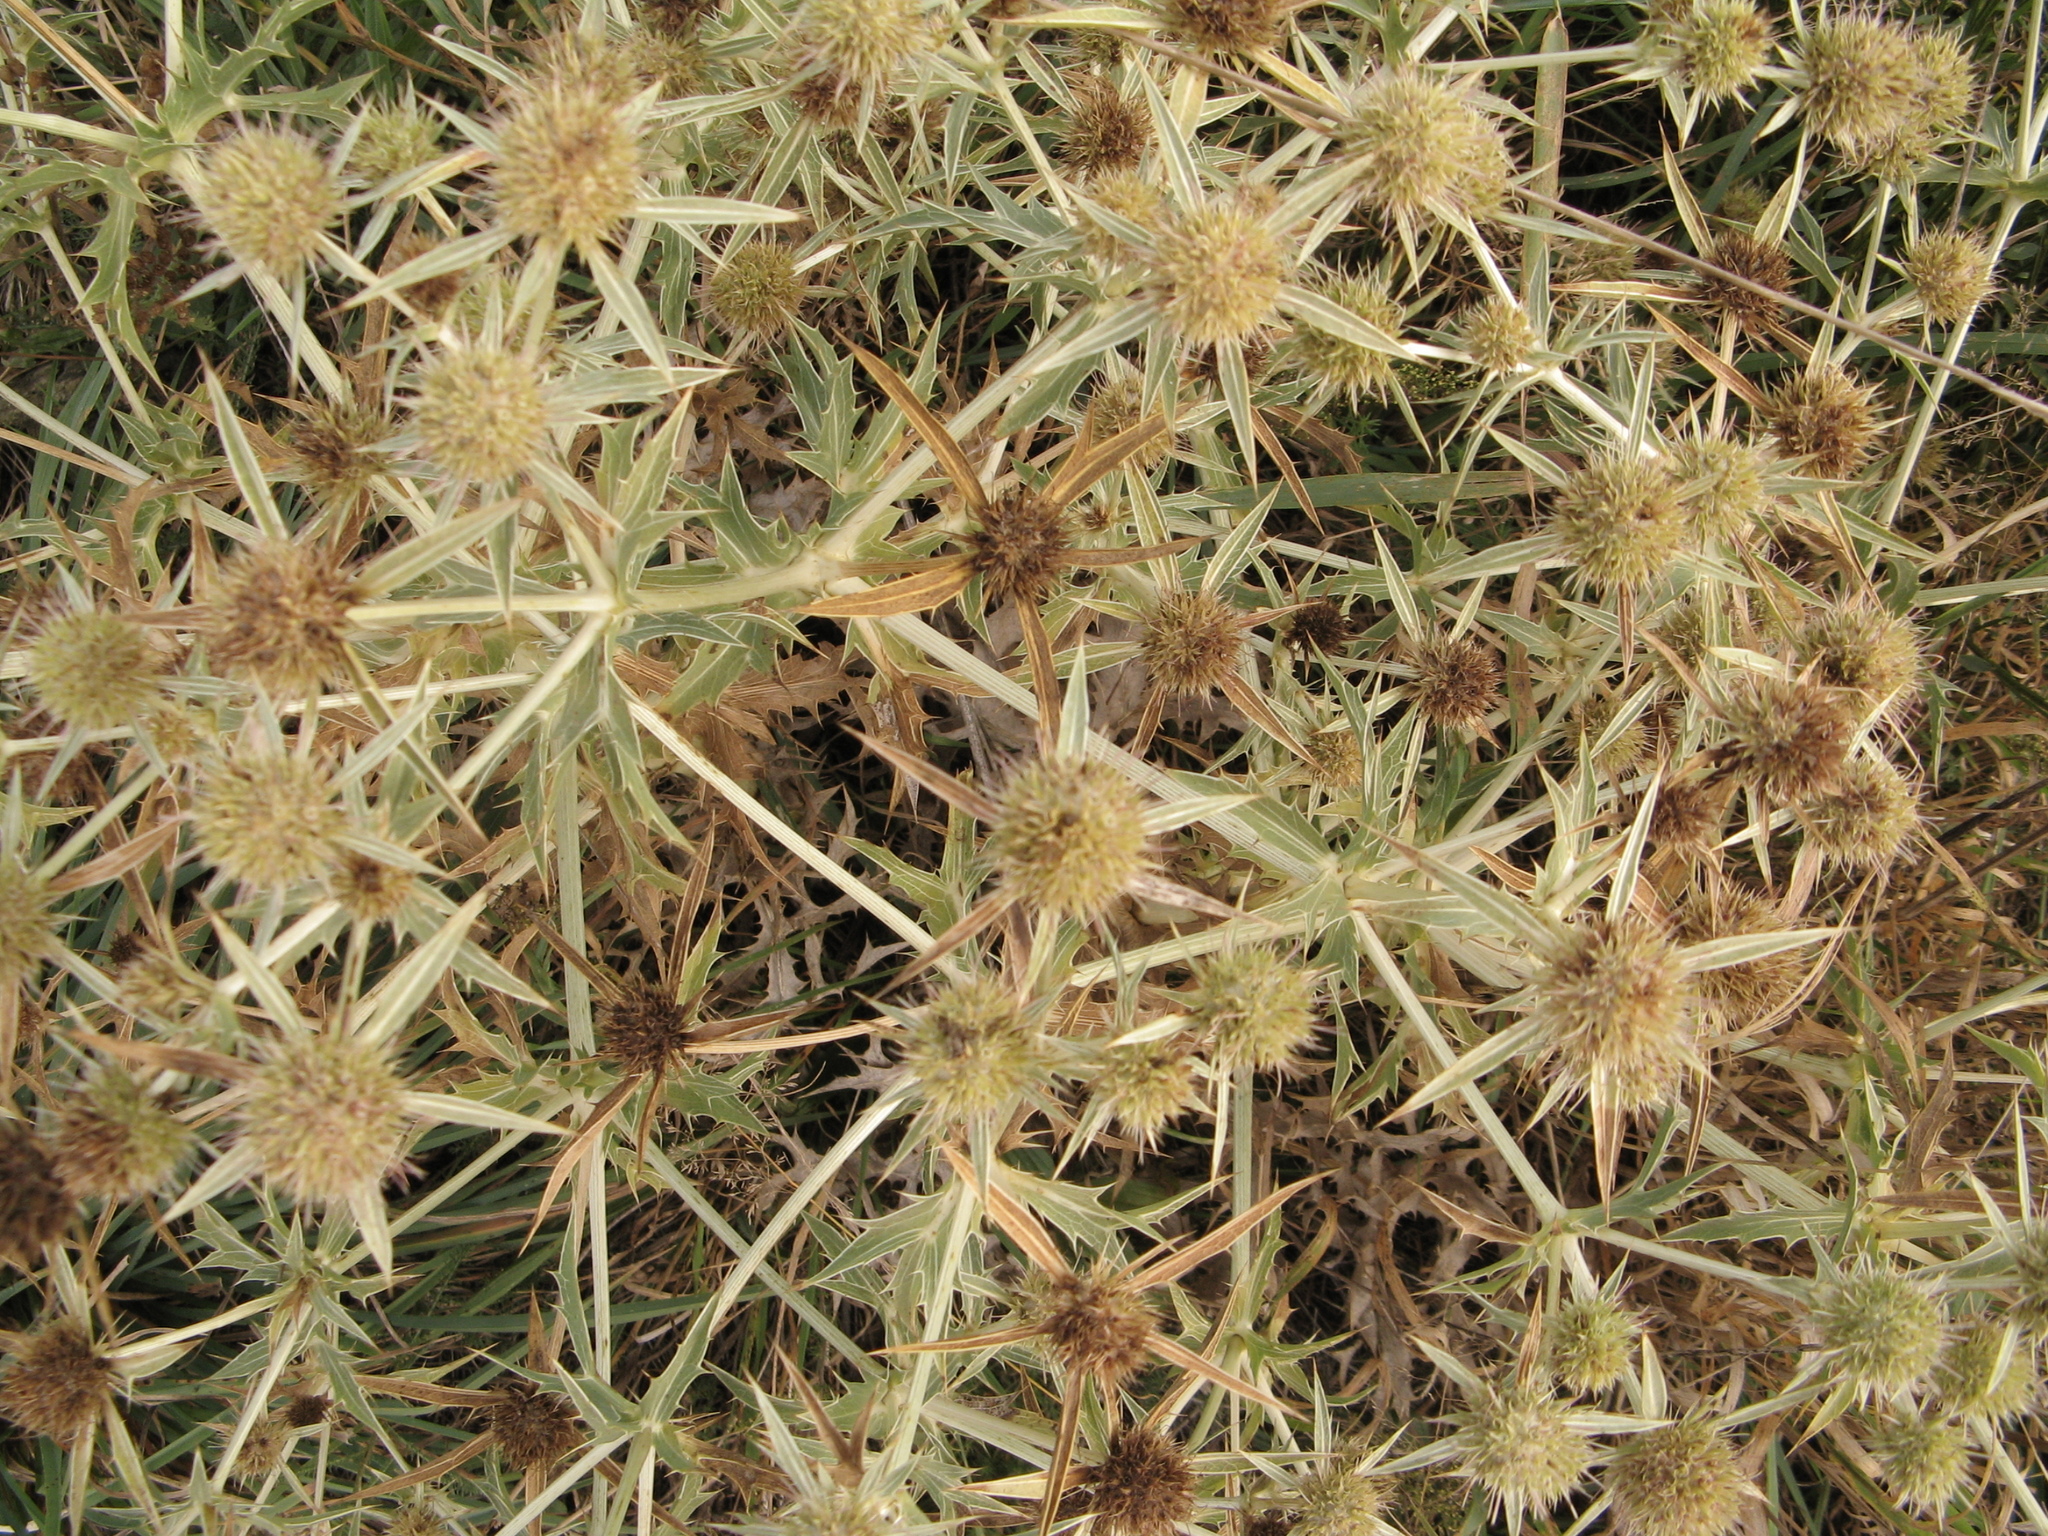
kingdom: Plantae
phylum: Tracheophyta
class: Magnoliopsida
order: Apiales
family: Apiaceae
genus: Eryngium
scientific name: Eryngium campestre
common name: Field eryngo
